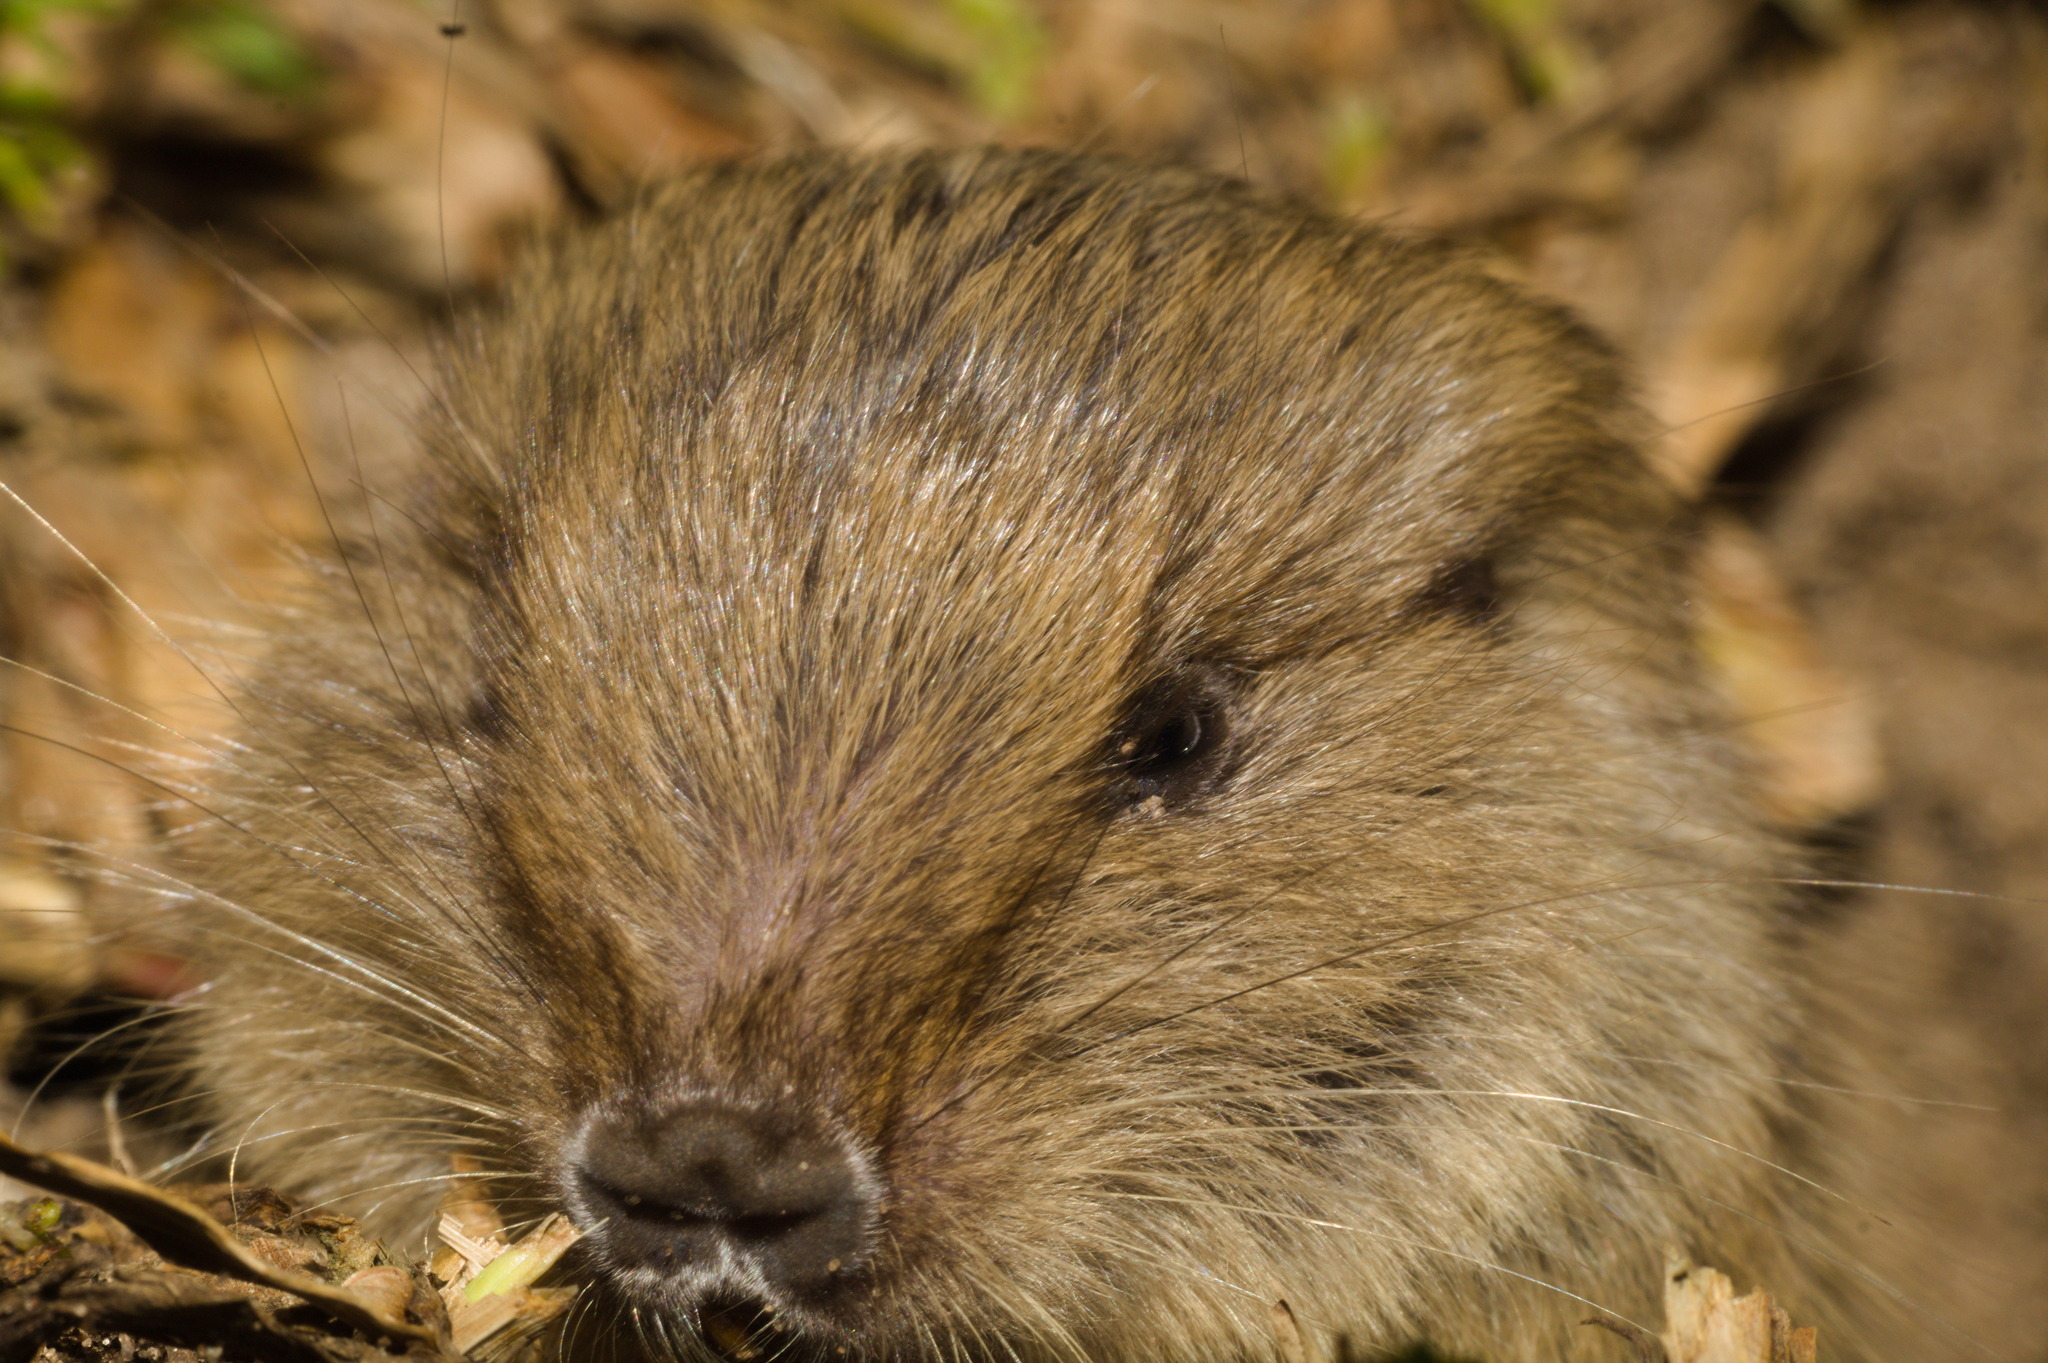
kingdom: Animalia
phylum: Chordata
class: Mammalia
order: Rodentia
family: Ctenomyidae
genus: Ctenomys
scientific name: Ctenomys lami
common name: Lami tuco-tuco
